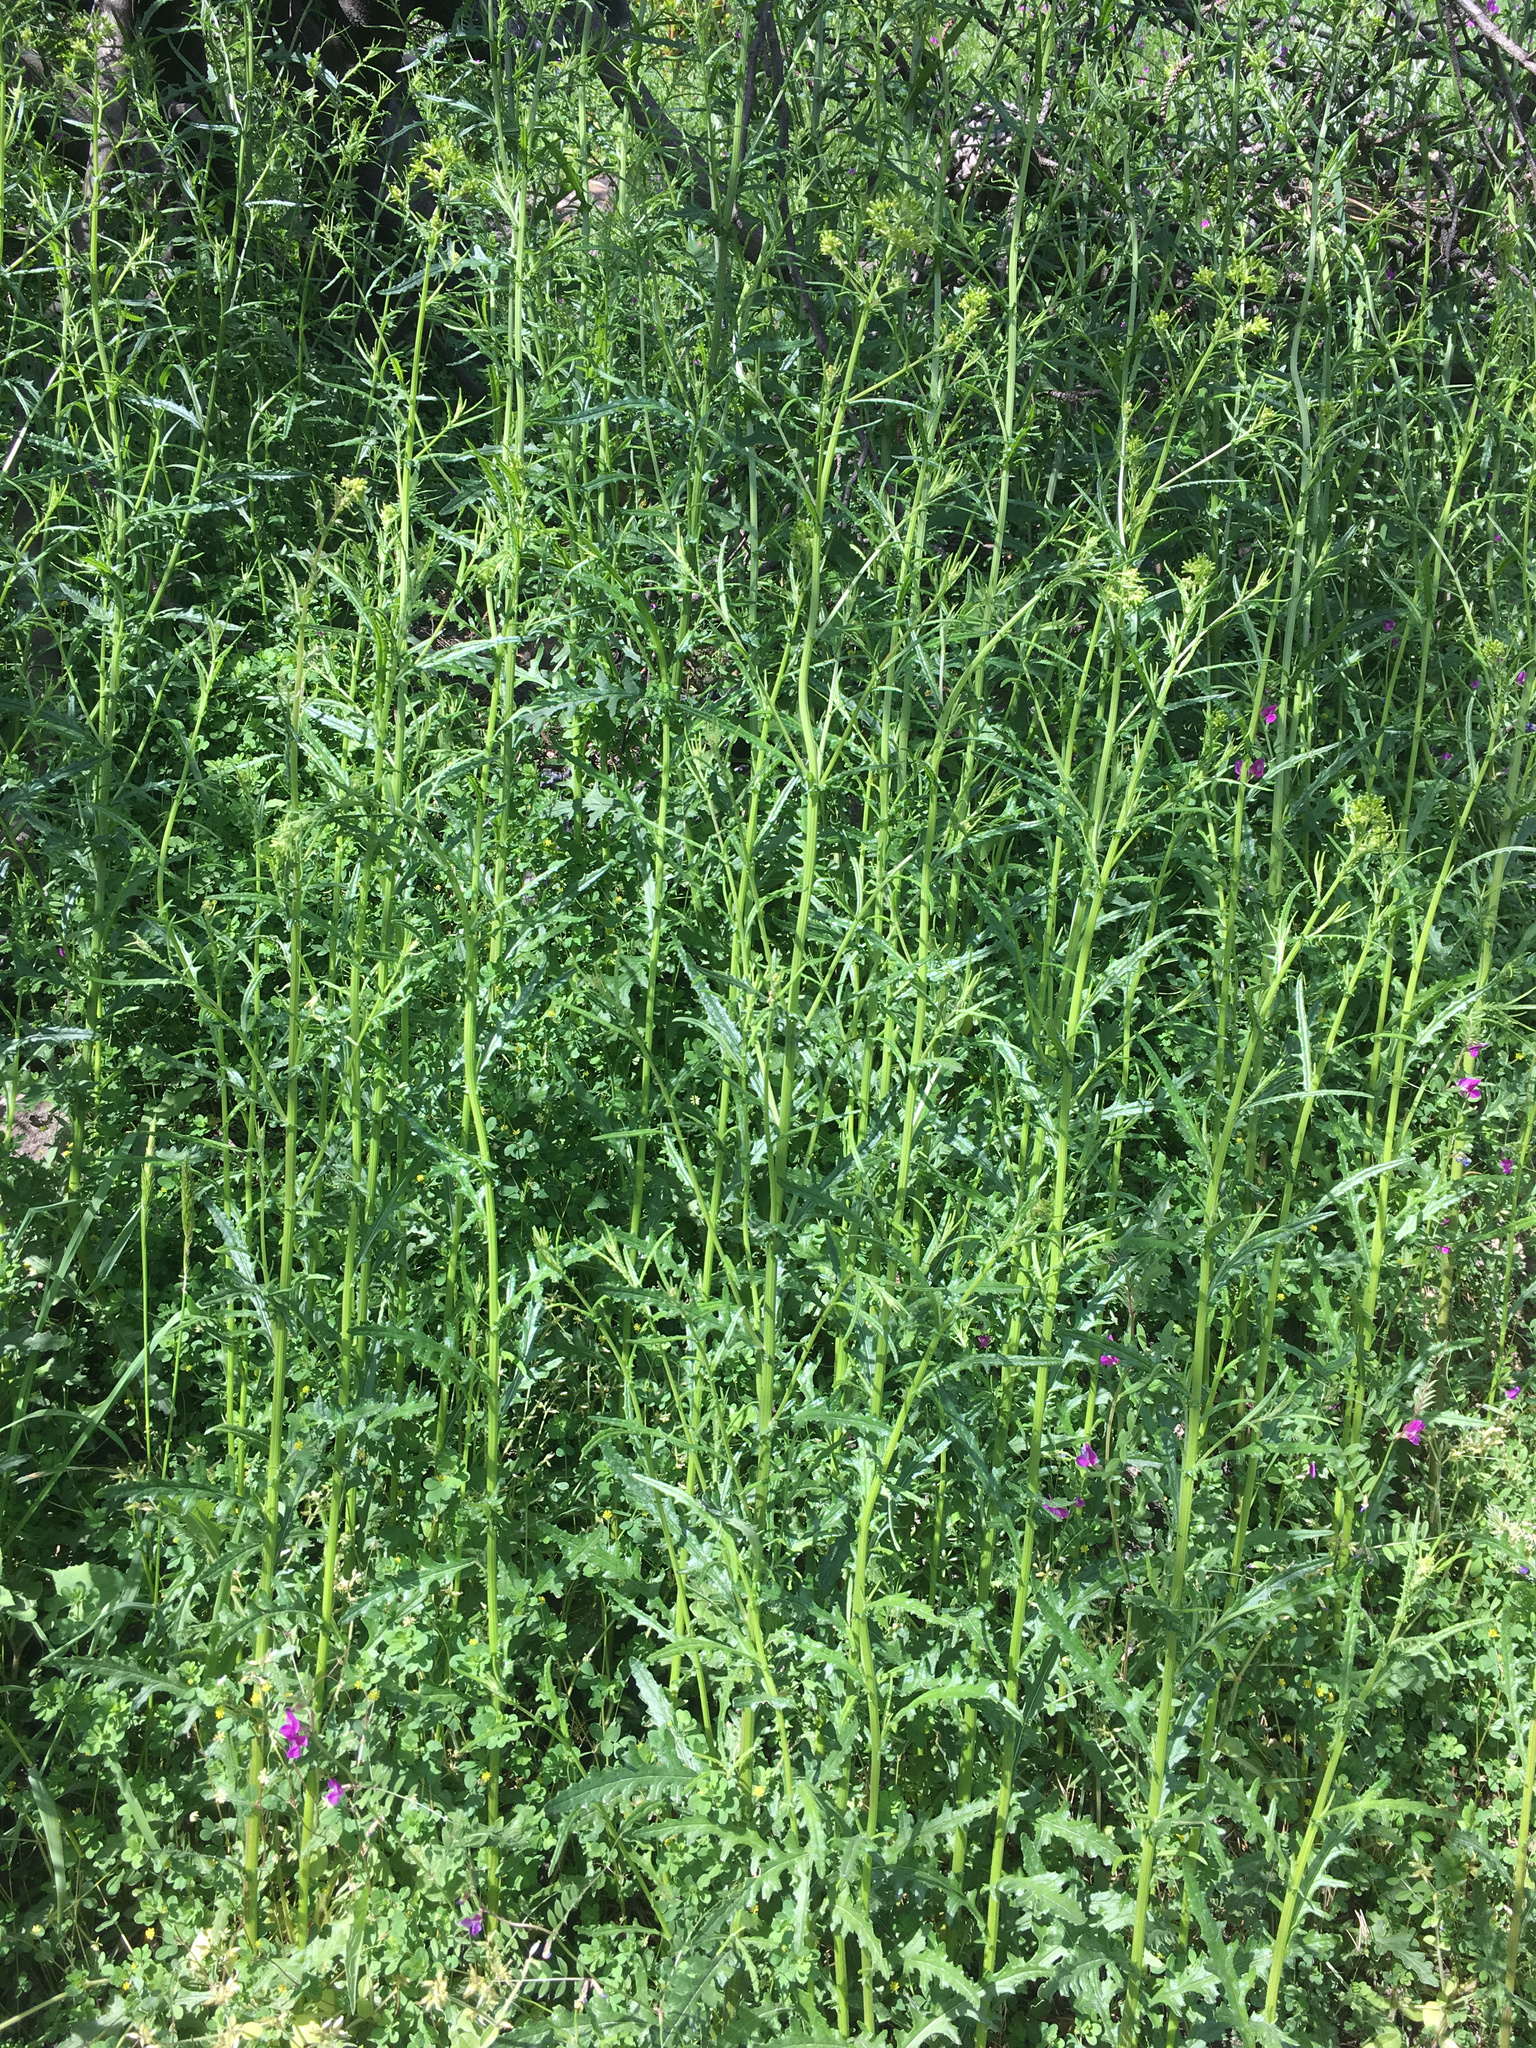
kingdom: Plantae
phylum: Tracheophyta
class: Magnoliopsida
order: Asterales
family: Asteraceae
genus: Senecio
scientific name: Senecio hispidulus
